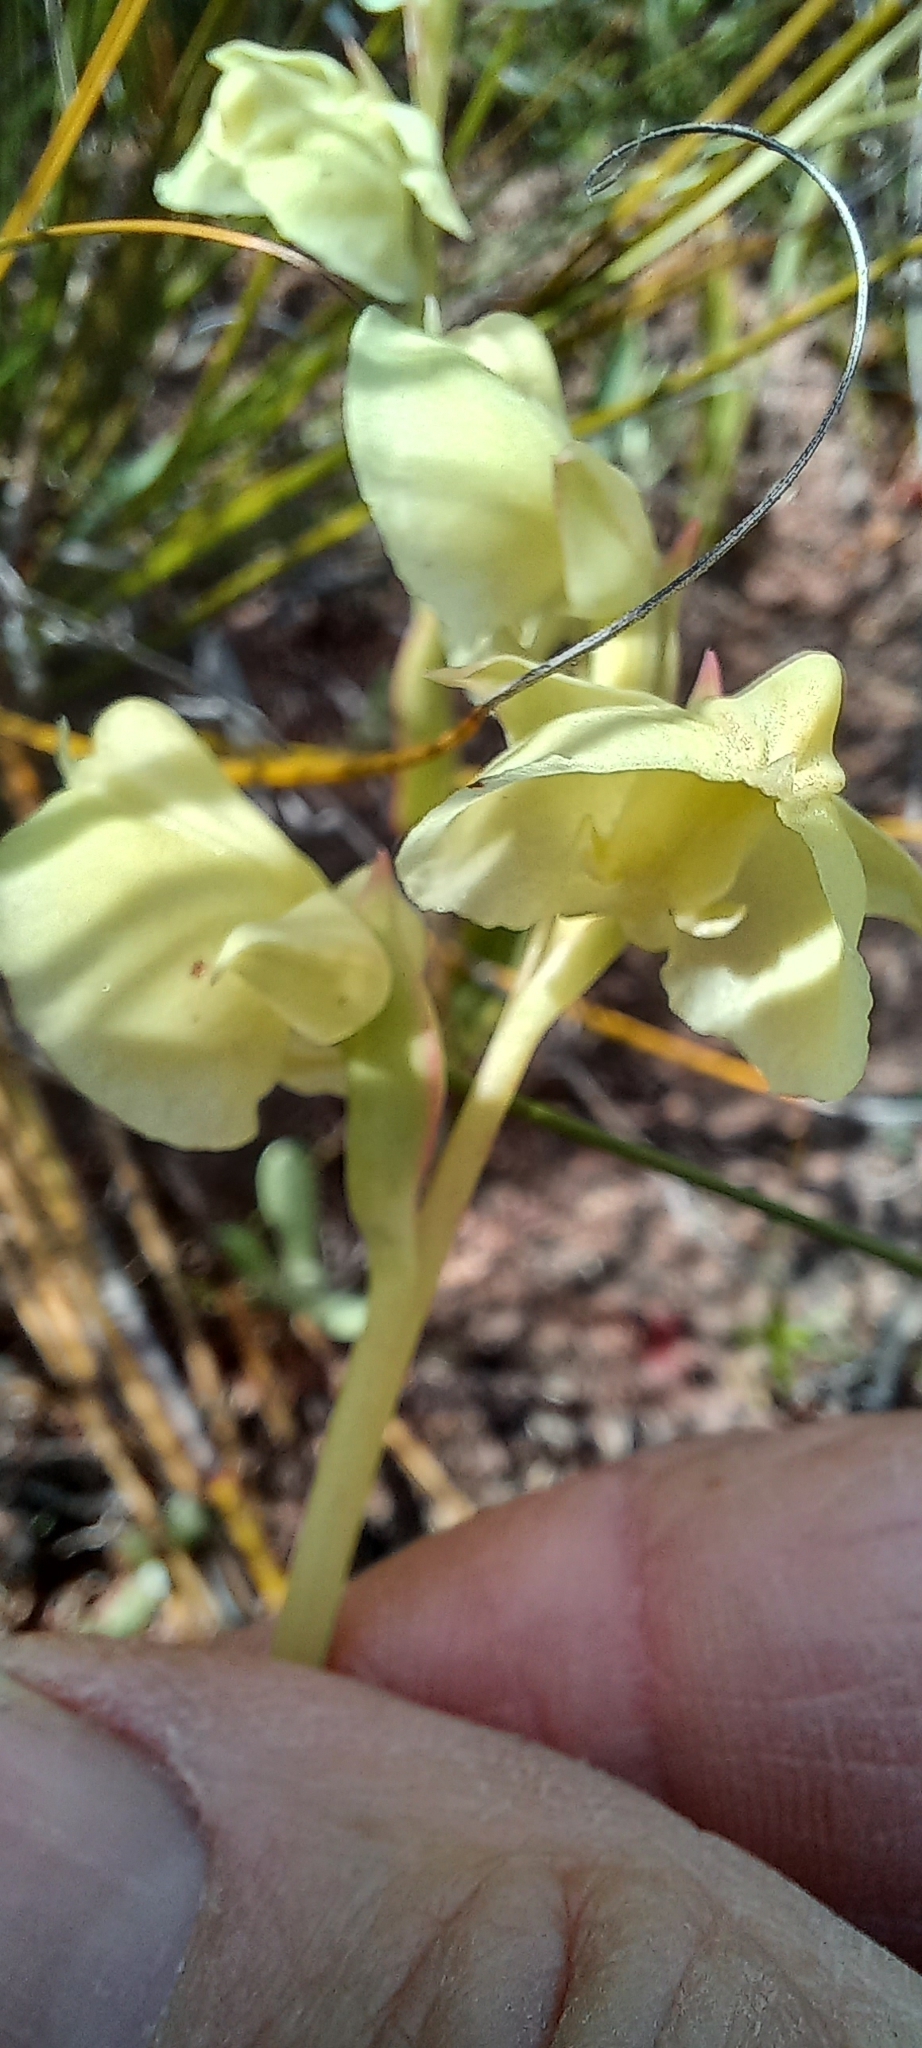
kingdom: Plantae
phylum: Tracheophyta
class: Liliopsida
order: Asparagales
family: Orchidaceae
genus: Pterygodium
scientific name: Pterygodium catholicum
